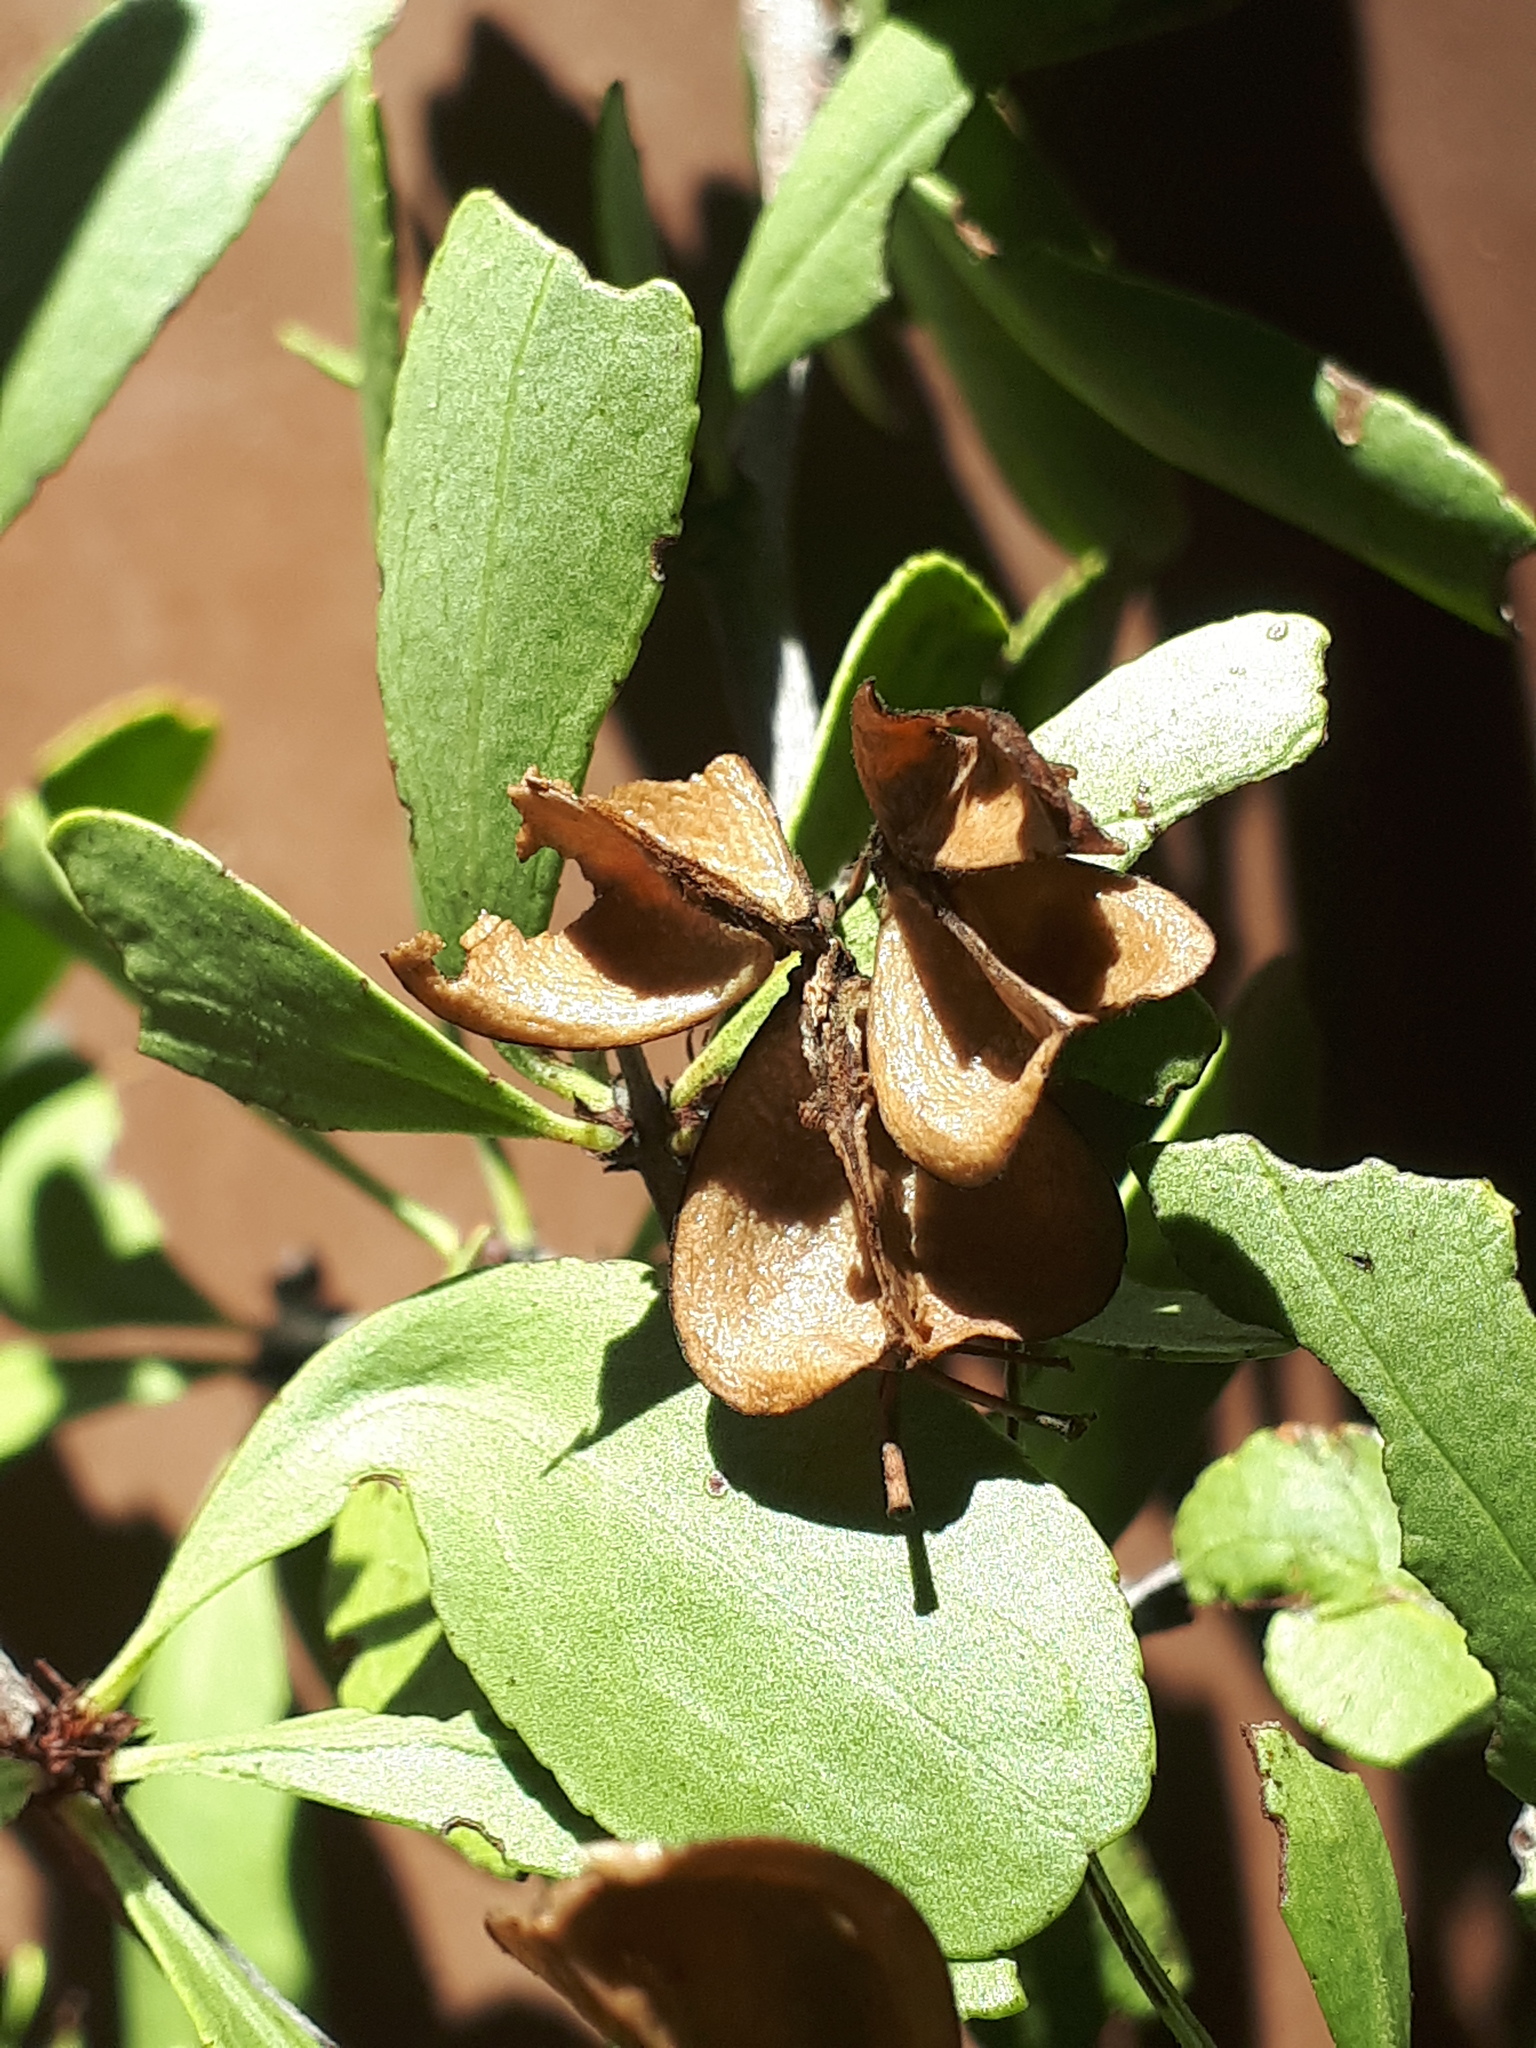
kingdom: Plantae
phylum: Tracheophyta
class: Magnoliopsida
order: Celastrales
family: Celastraceae
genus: Gymnosporia
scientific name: Gymnosporia tenuispina
